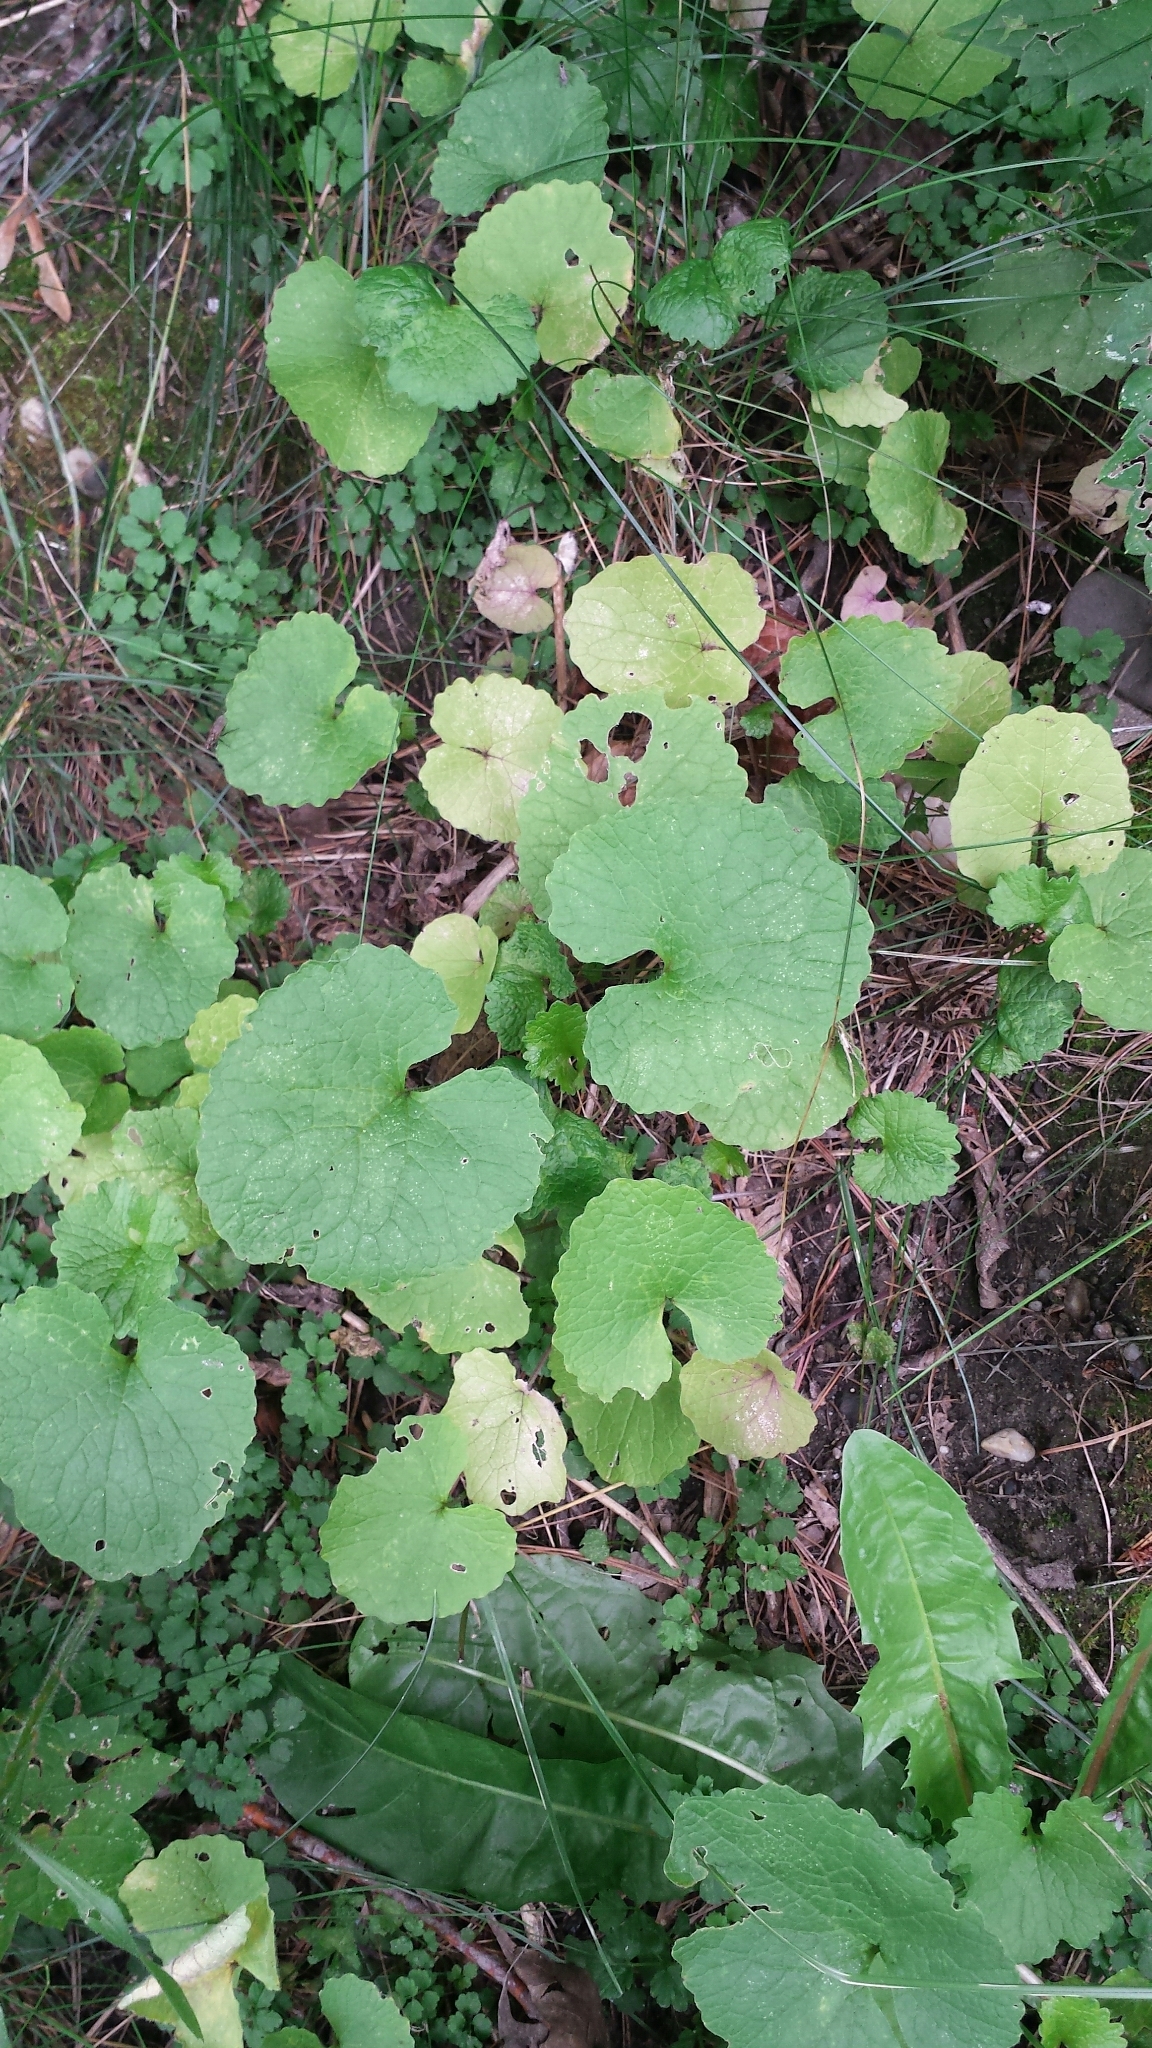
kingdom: Plantae
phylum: Tracheophyta
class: Magnoliopsida
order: Brassicales
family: Brassicaceae
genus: Alliaria
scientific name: Alliaria petiolata
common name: Garlic mustard
